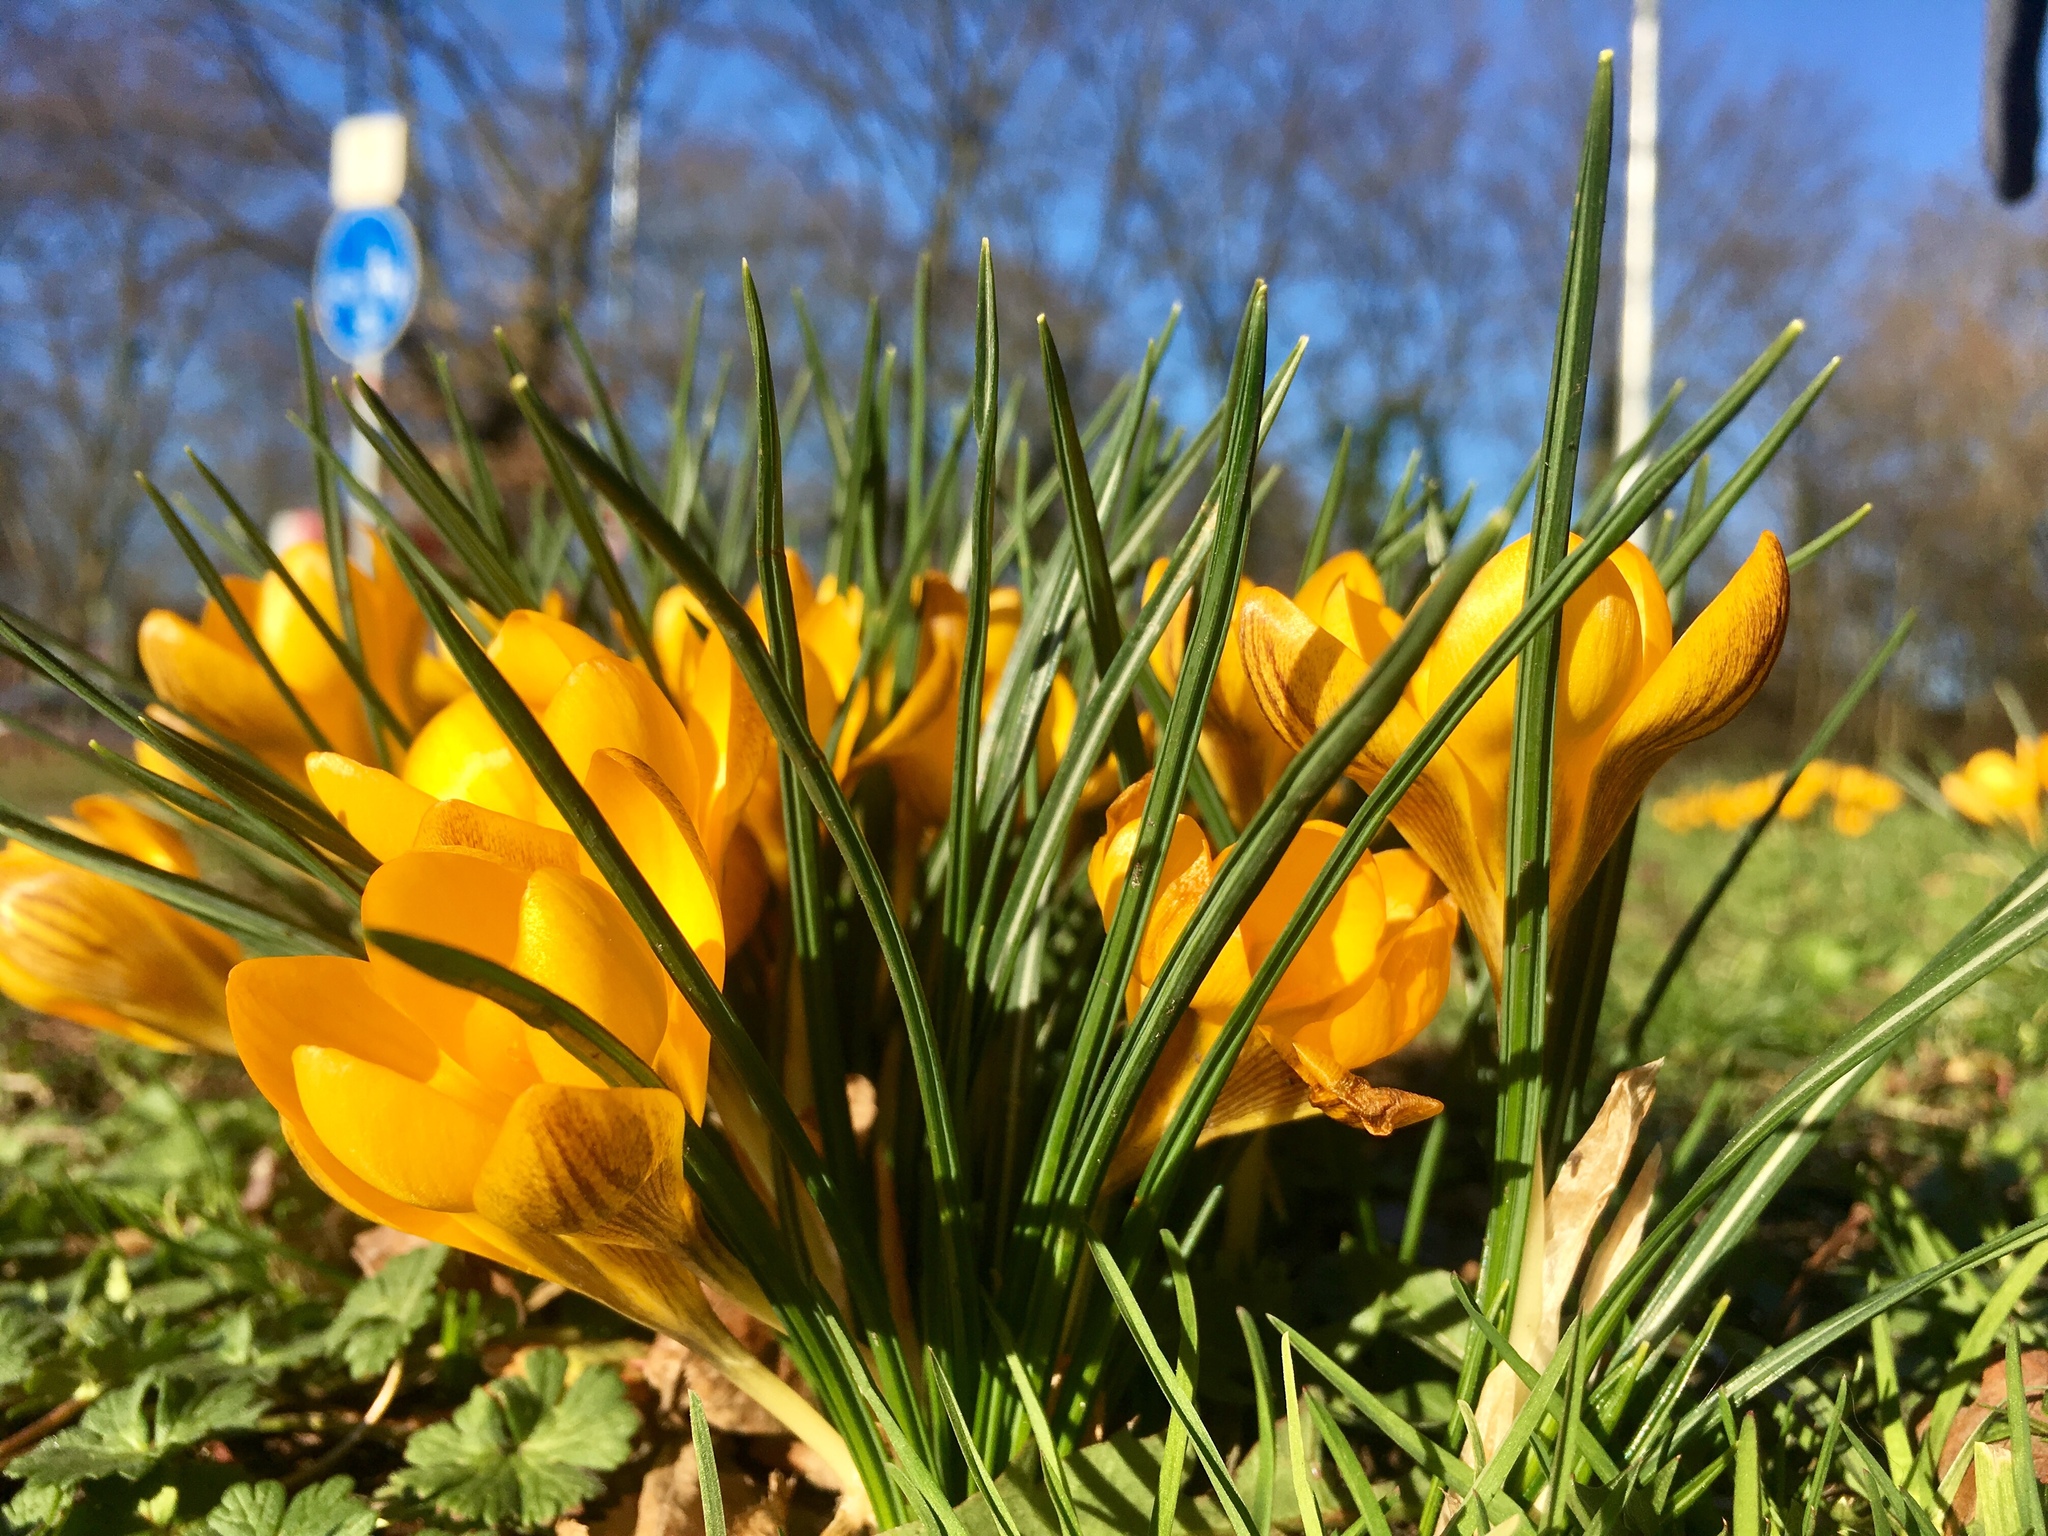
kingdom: Plantae
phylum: Tracheophyta
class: Liliopsida
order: Asparagales
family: Iridaceae
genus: Crocus
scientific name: Crocus chrysanthus
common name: Golden crocus
